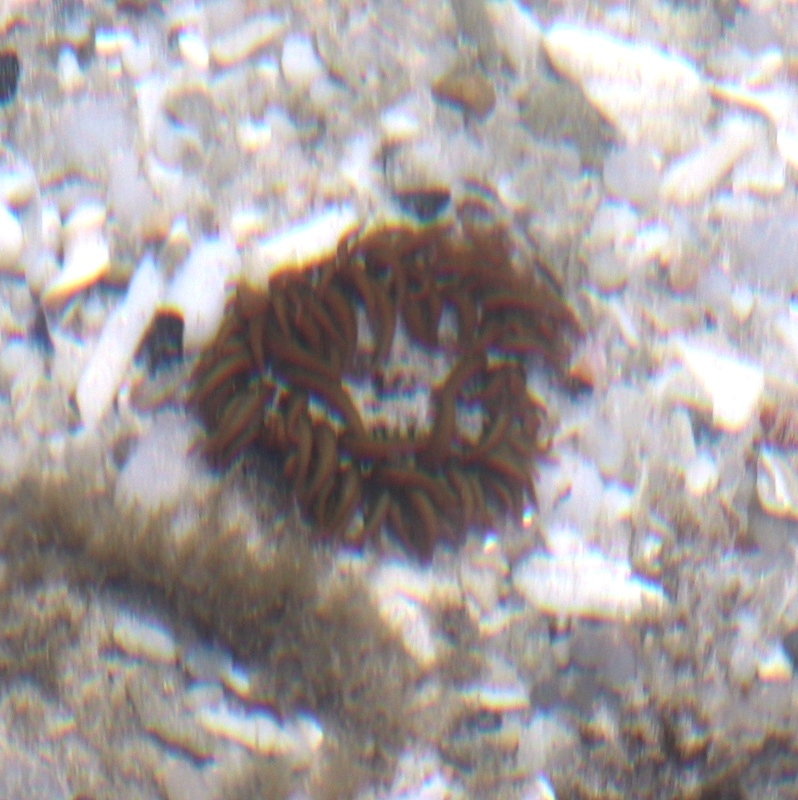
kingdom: Animalia
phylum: Cnidaria
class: Anthozoa
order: Actiniaria
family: Actiniidae
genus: Actinia
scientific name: Actinia ebhayiensis
